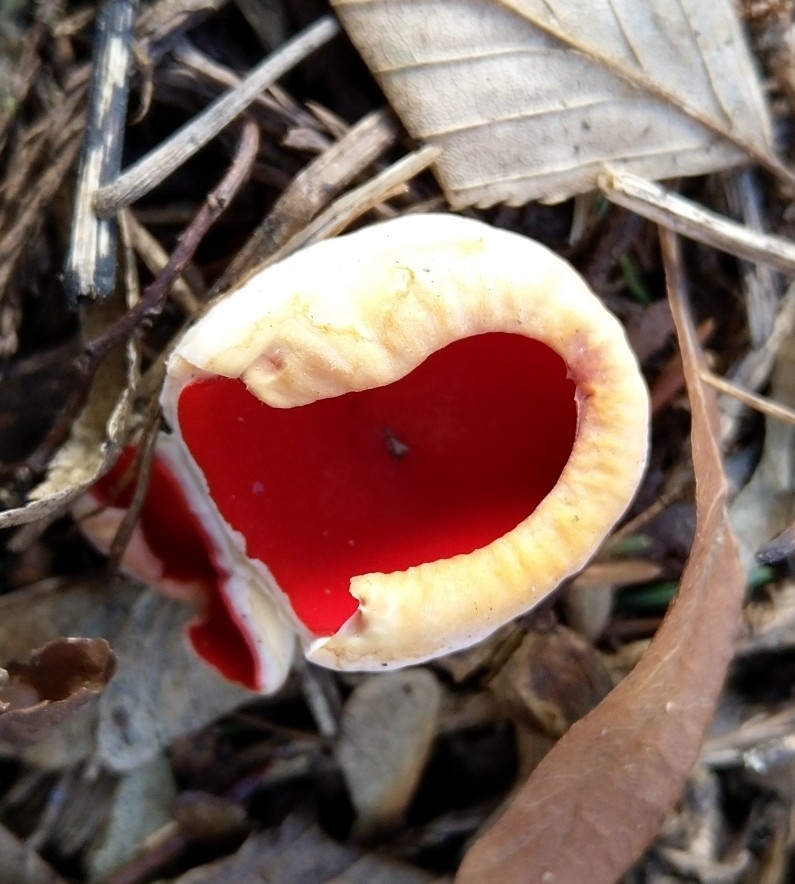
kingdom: Fungi
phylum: Ascomycota
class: Pezizomycetes
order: Pezizales
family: Sarcoscyphaceae
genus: Sarcoscypha
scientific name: Sarcoscypha
